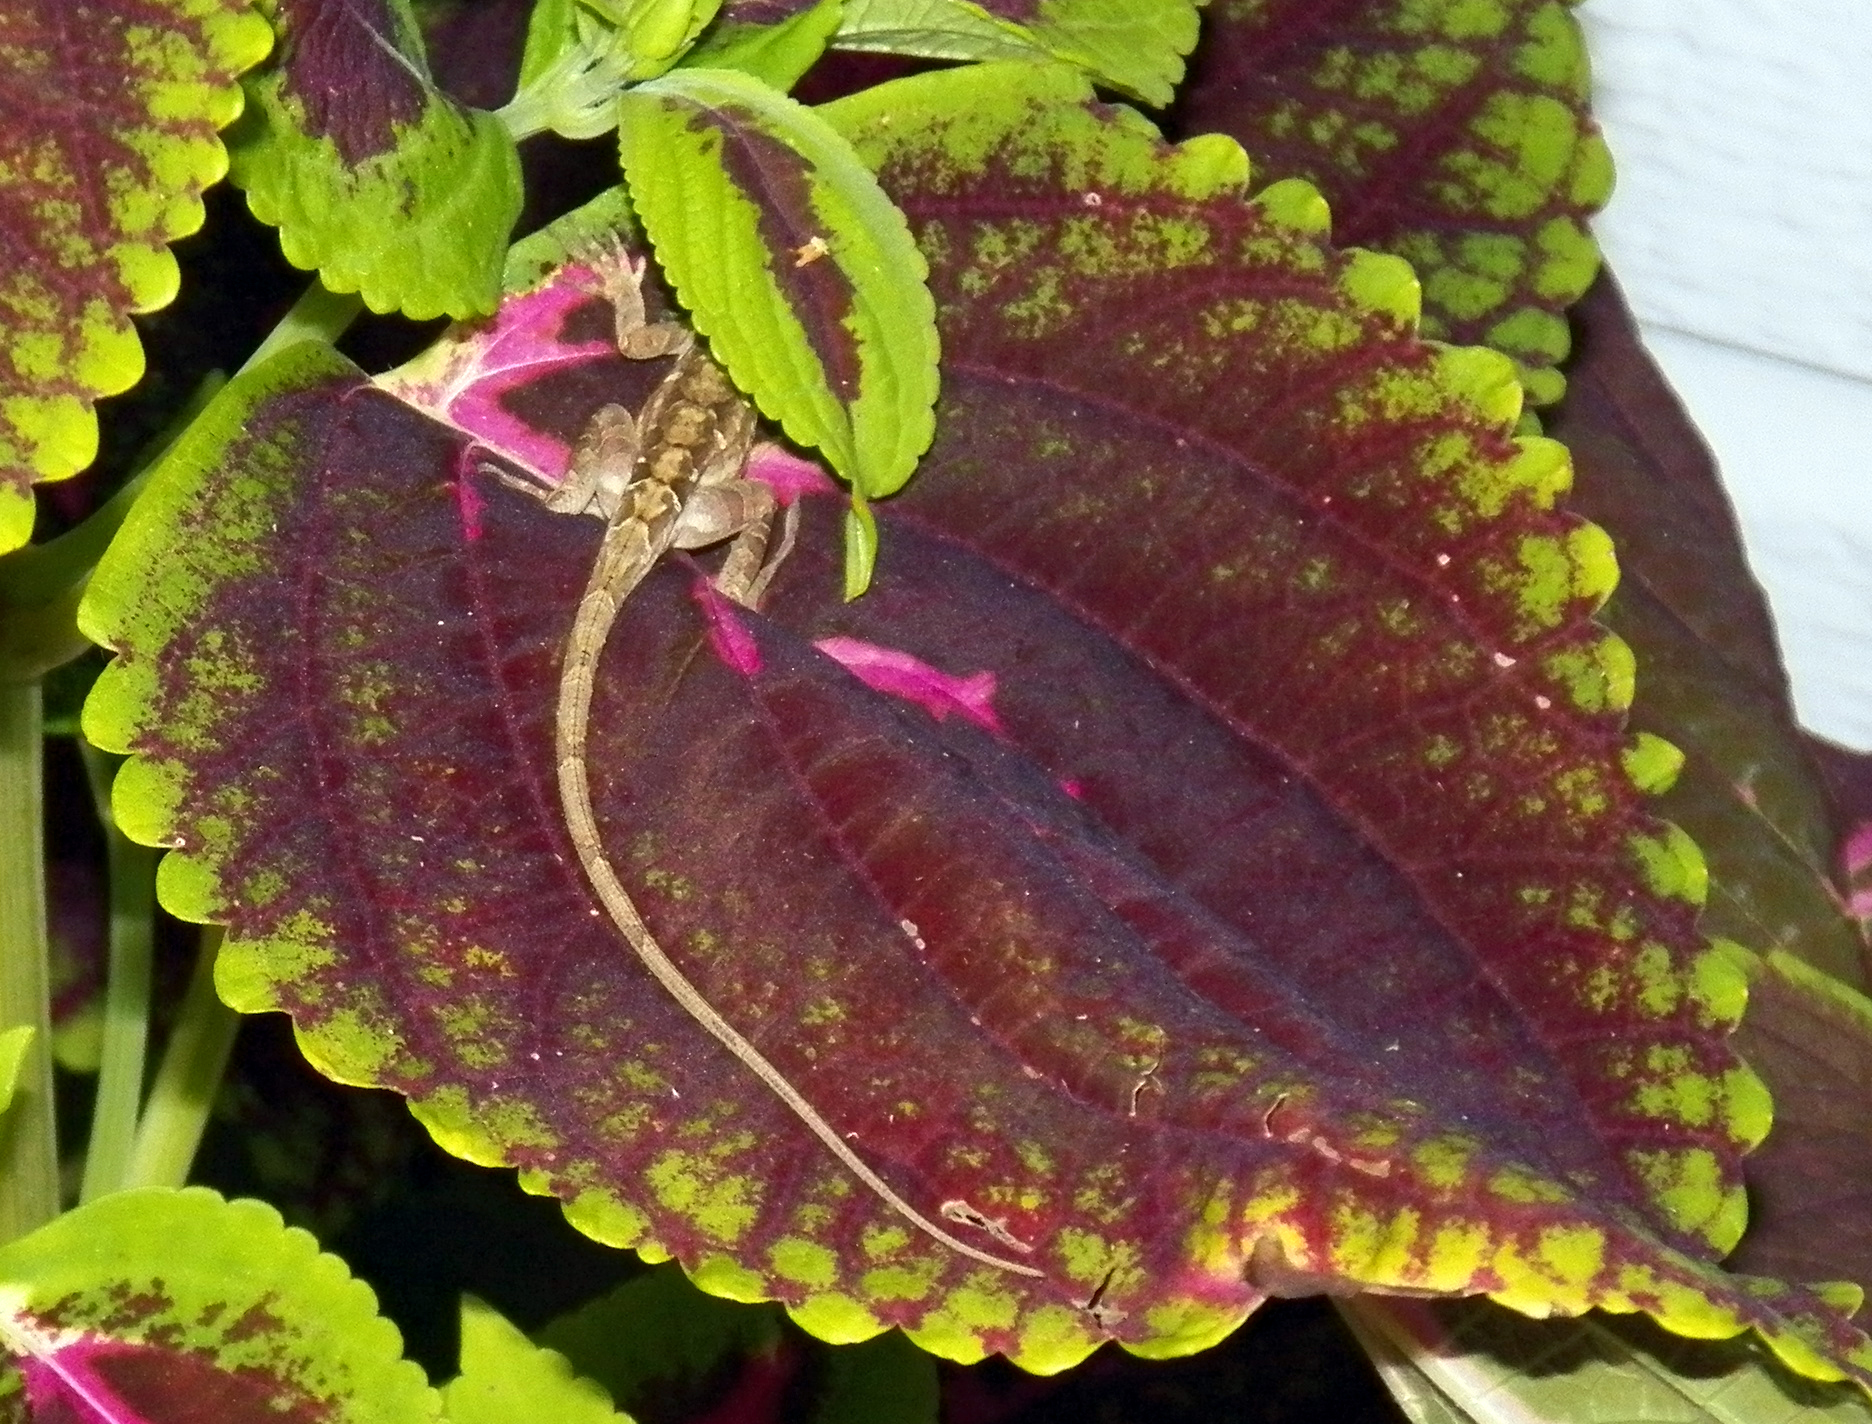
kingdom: Animalia
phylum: Chordata
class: Squamata
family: Dactyloidae
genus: Anolis
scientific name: Anolis sagrei
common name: Brown anole
